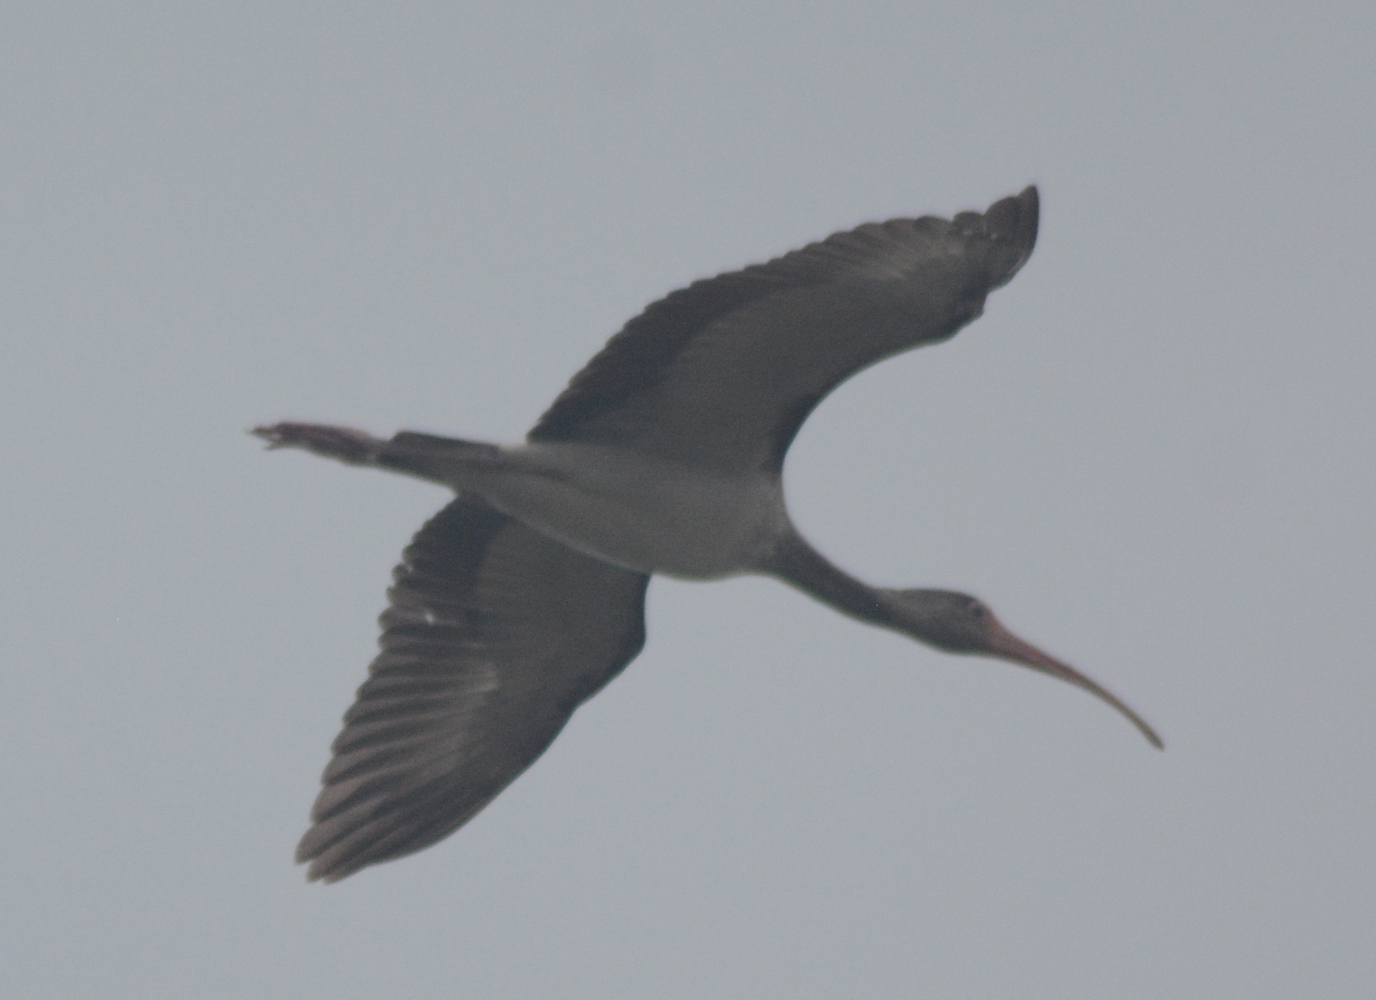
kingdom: Animalia
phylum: Chordata
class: Aves
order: Pelecaniformes
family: Threskiornithidae
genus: Eudocimus
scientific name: Eudocimus albus
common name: White ibis
